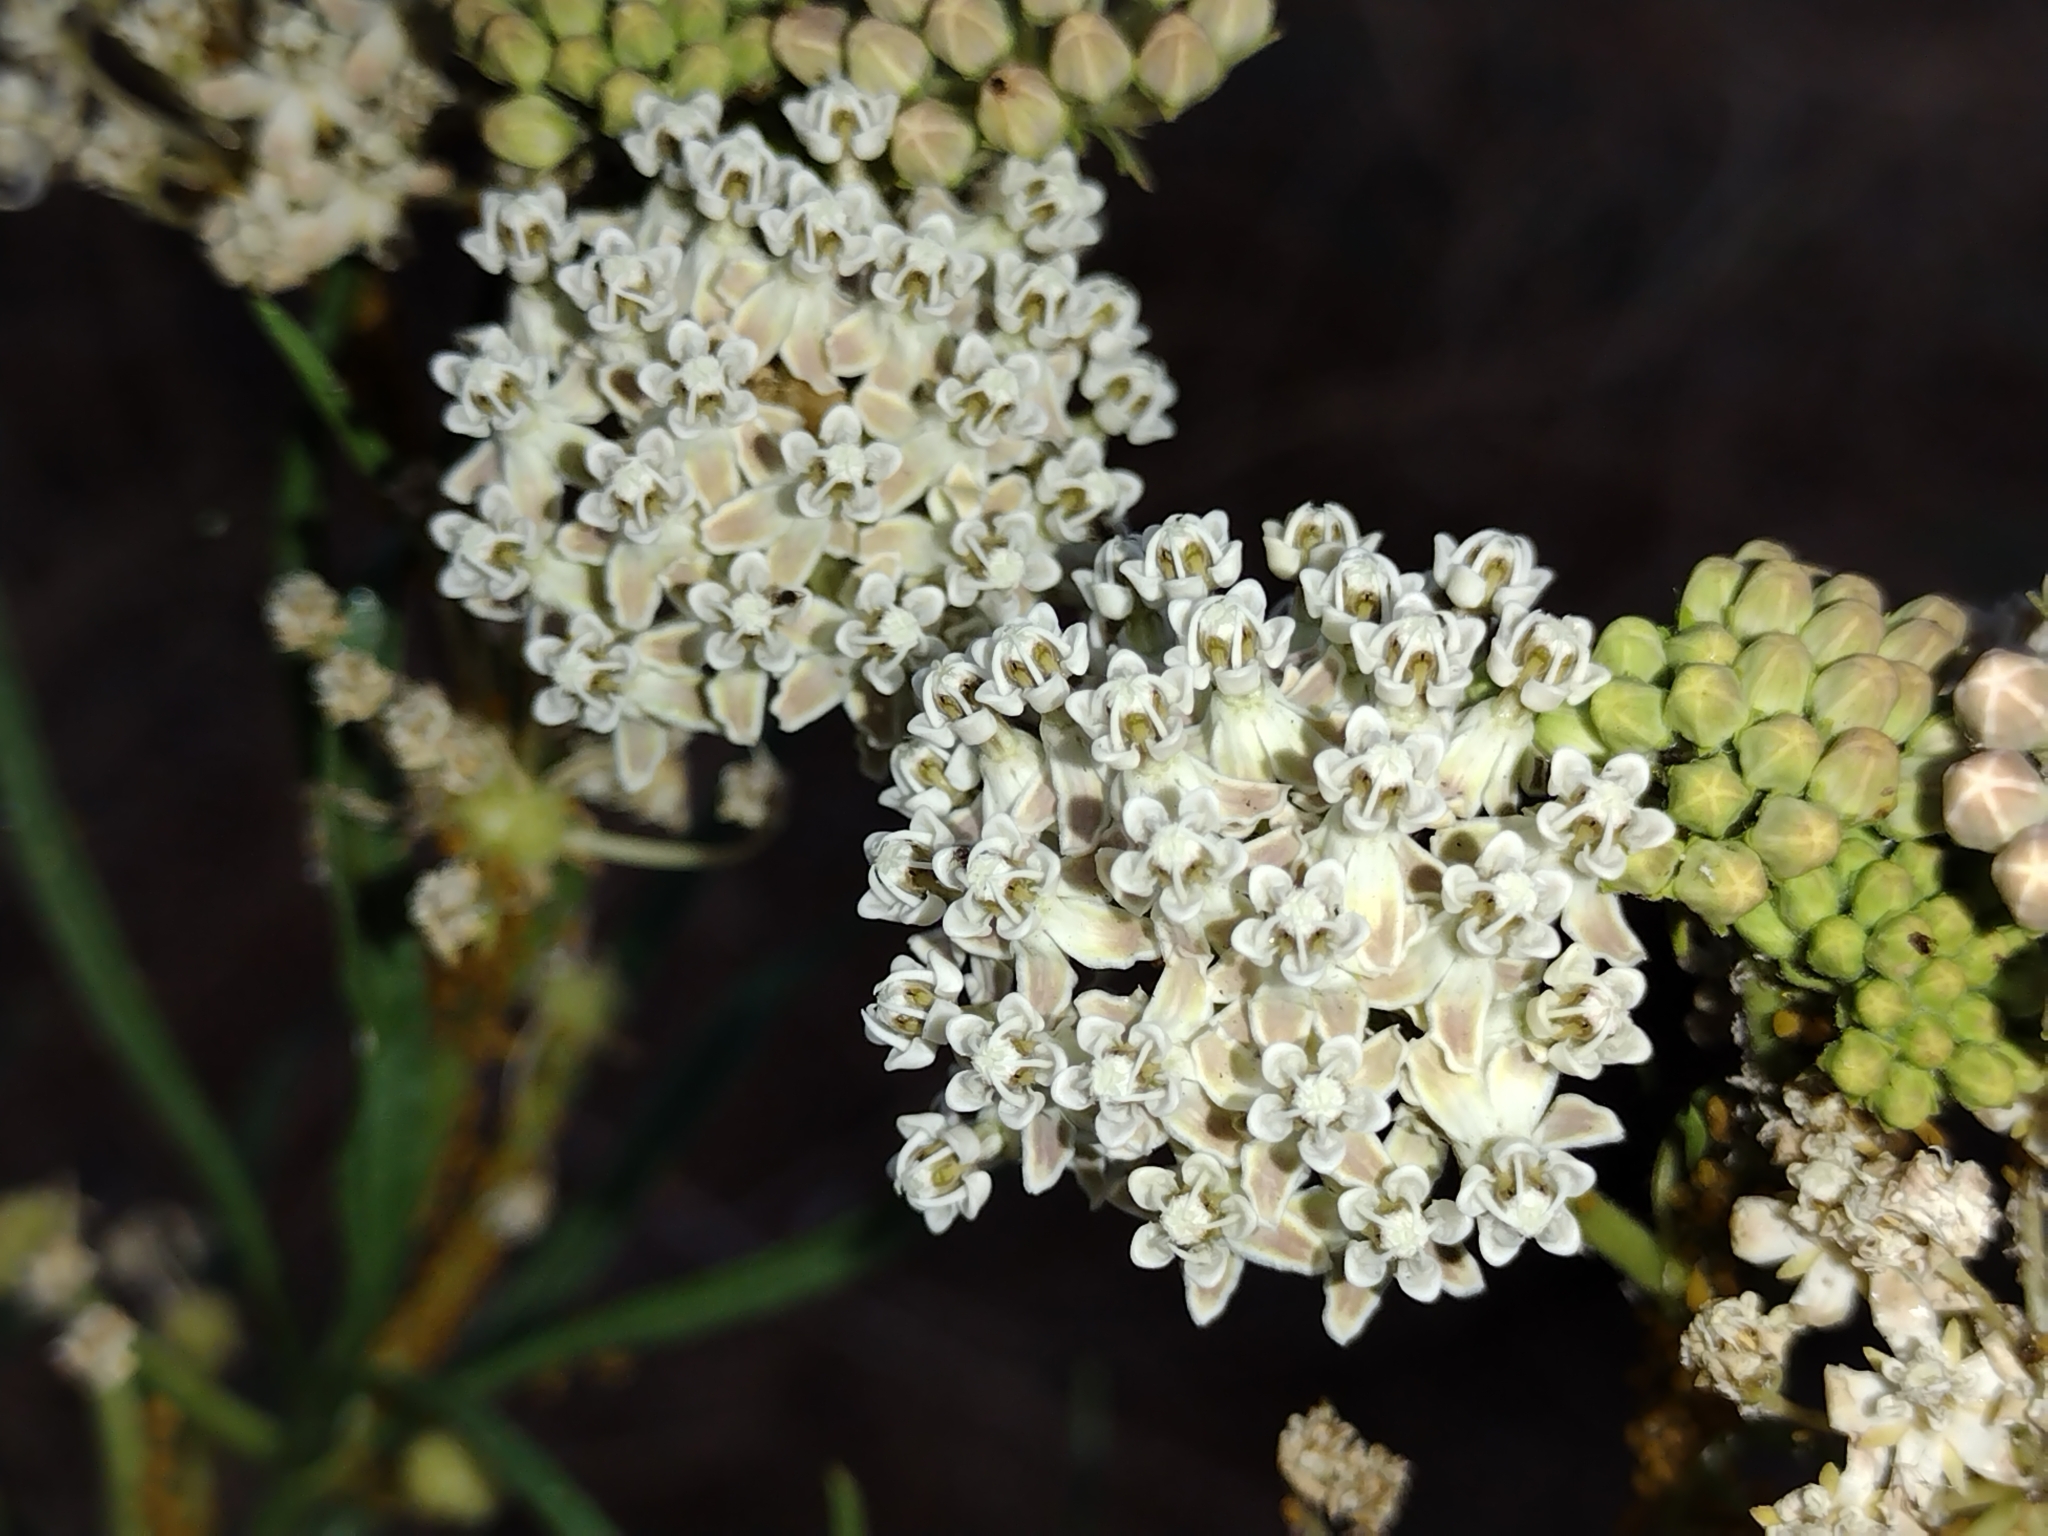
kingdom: Plantae
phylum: Tracheophyta
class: Magnoliopsida
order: Gentianales
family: Apocynaceae
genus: Asclepias
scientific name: Asclepias fascicularis
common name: Mexican milkweed
